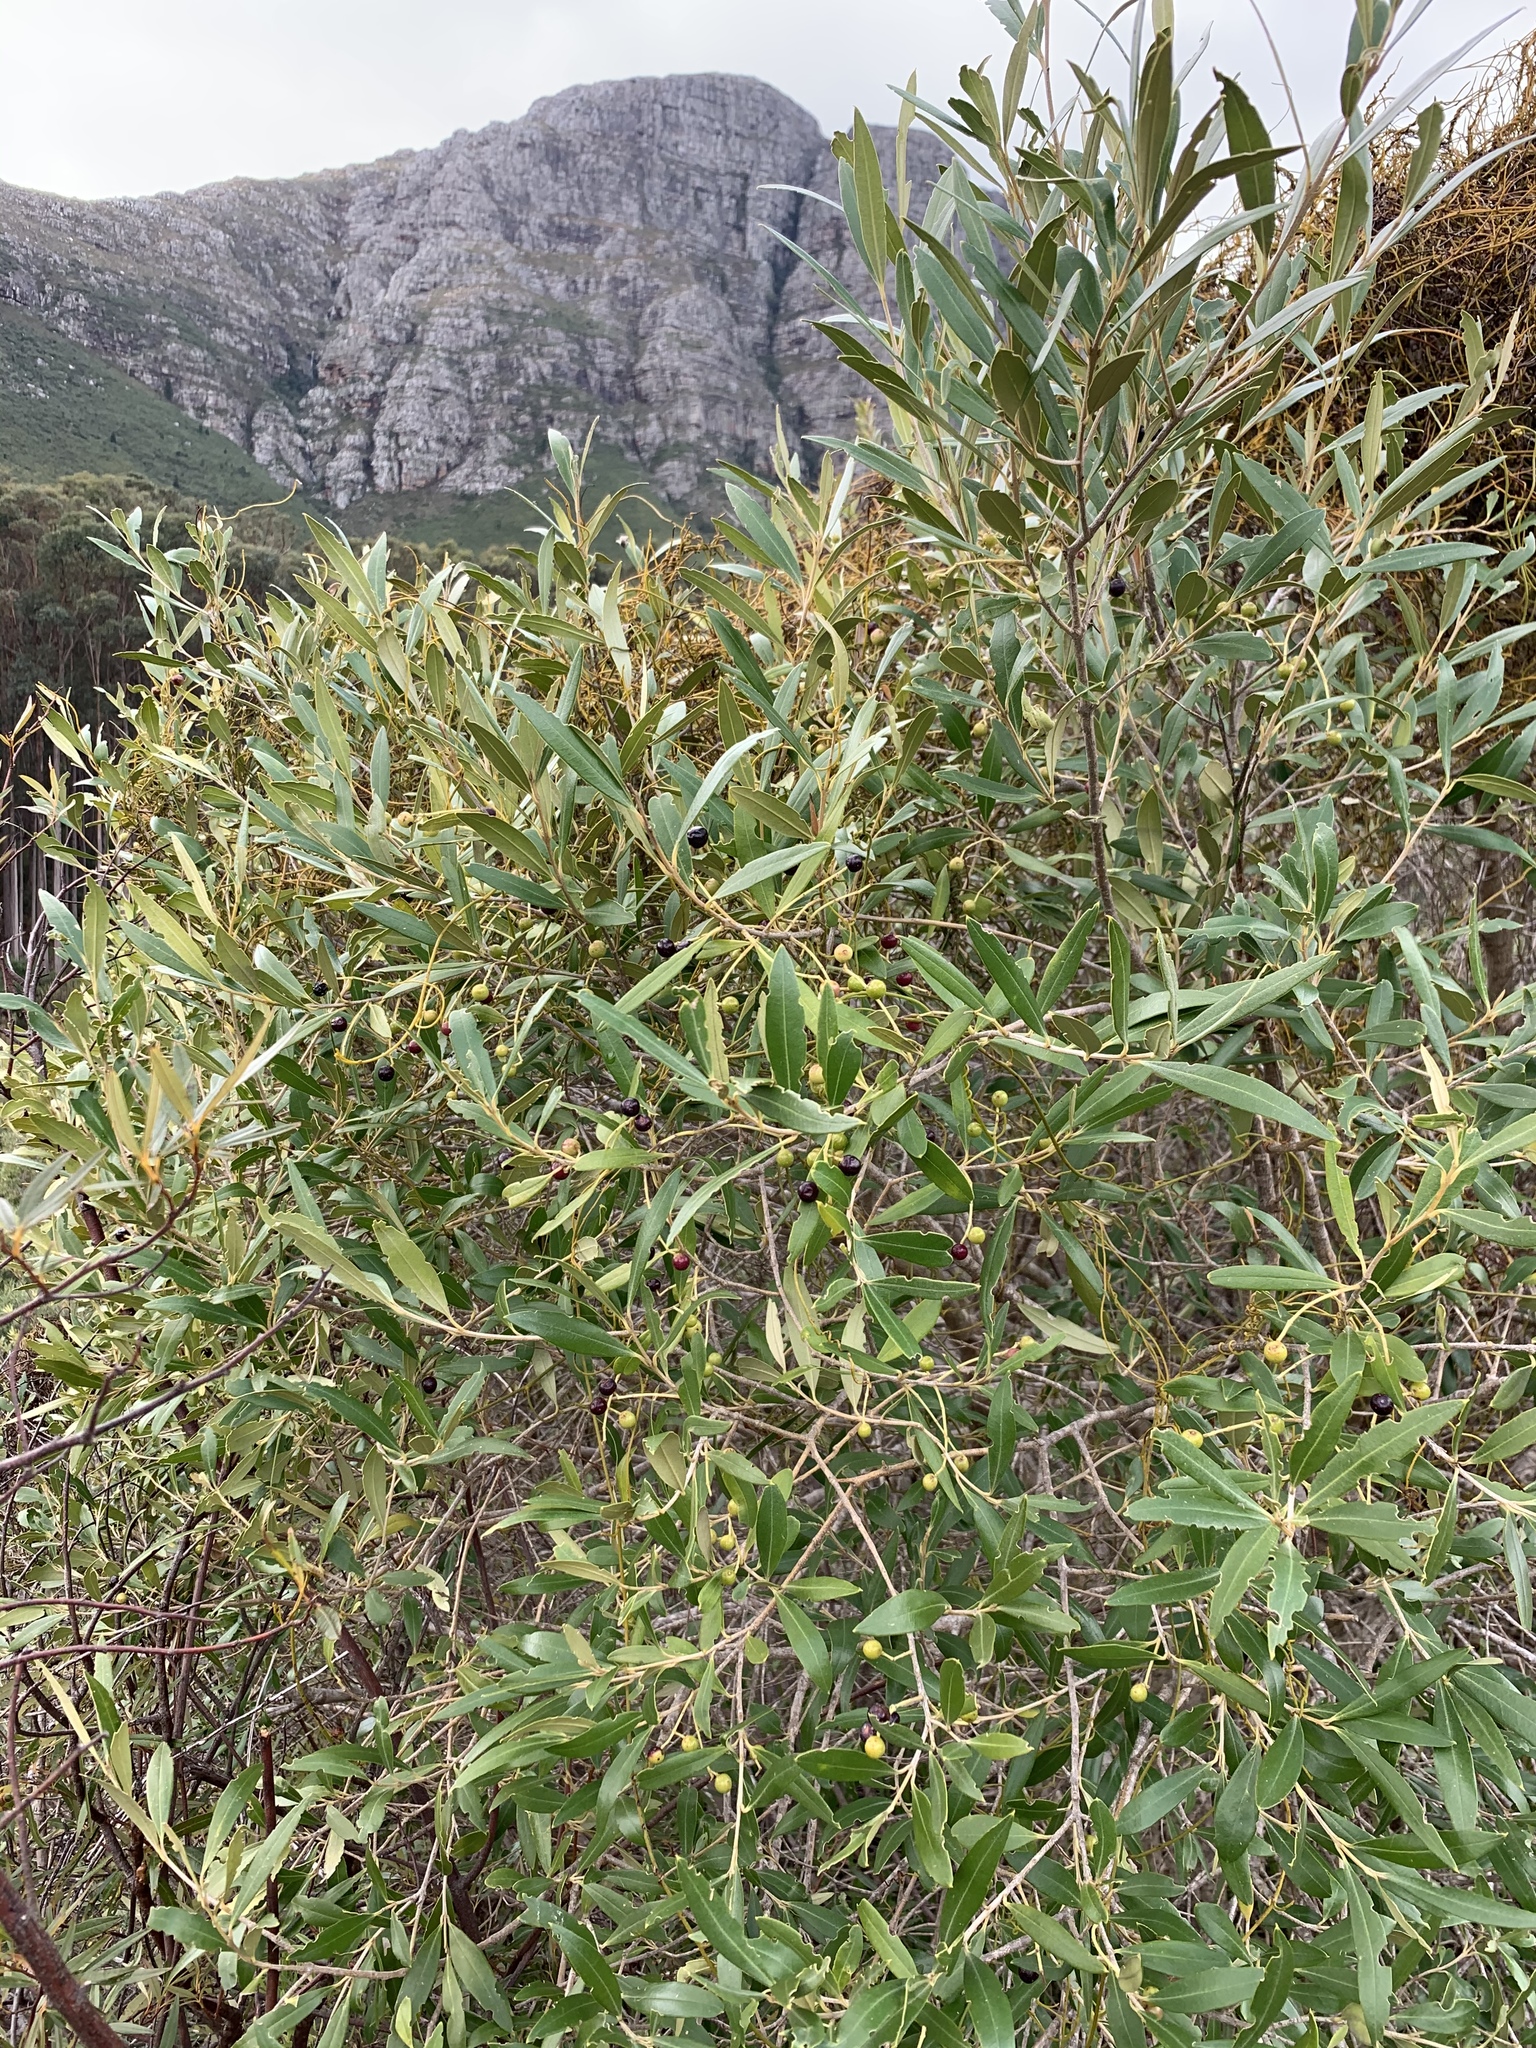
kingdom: Plantae
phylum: Tracheophyta
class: Magnoliopsida
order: Lamiales
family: Oleaceae
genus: Olea
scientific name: Olea europaea
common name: Olive
